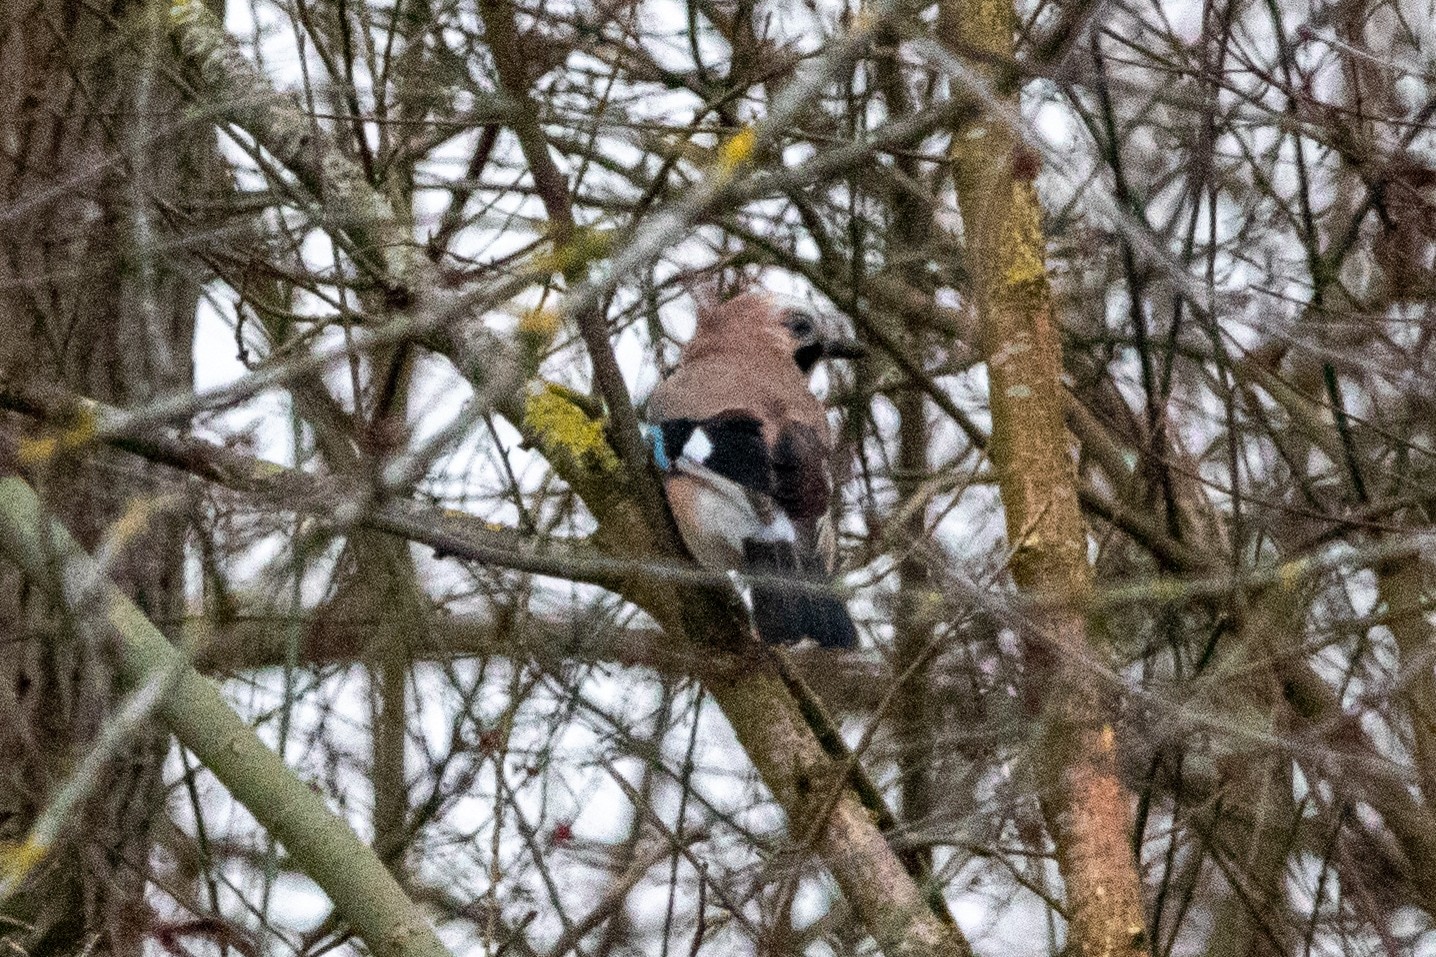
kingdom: Animalia
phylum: Chordata
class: Aves
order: Passeriformes
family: Corvidae
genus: Garrulus
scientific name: Garrulus glandarius
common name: Eurasian jay
